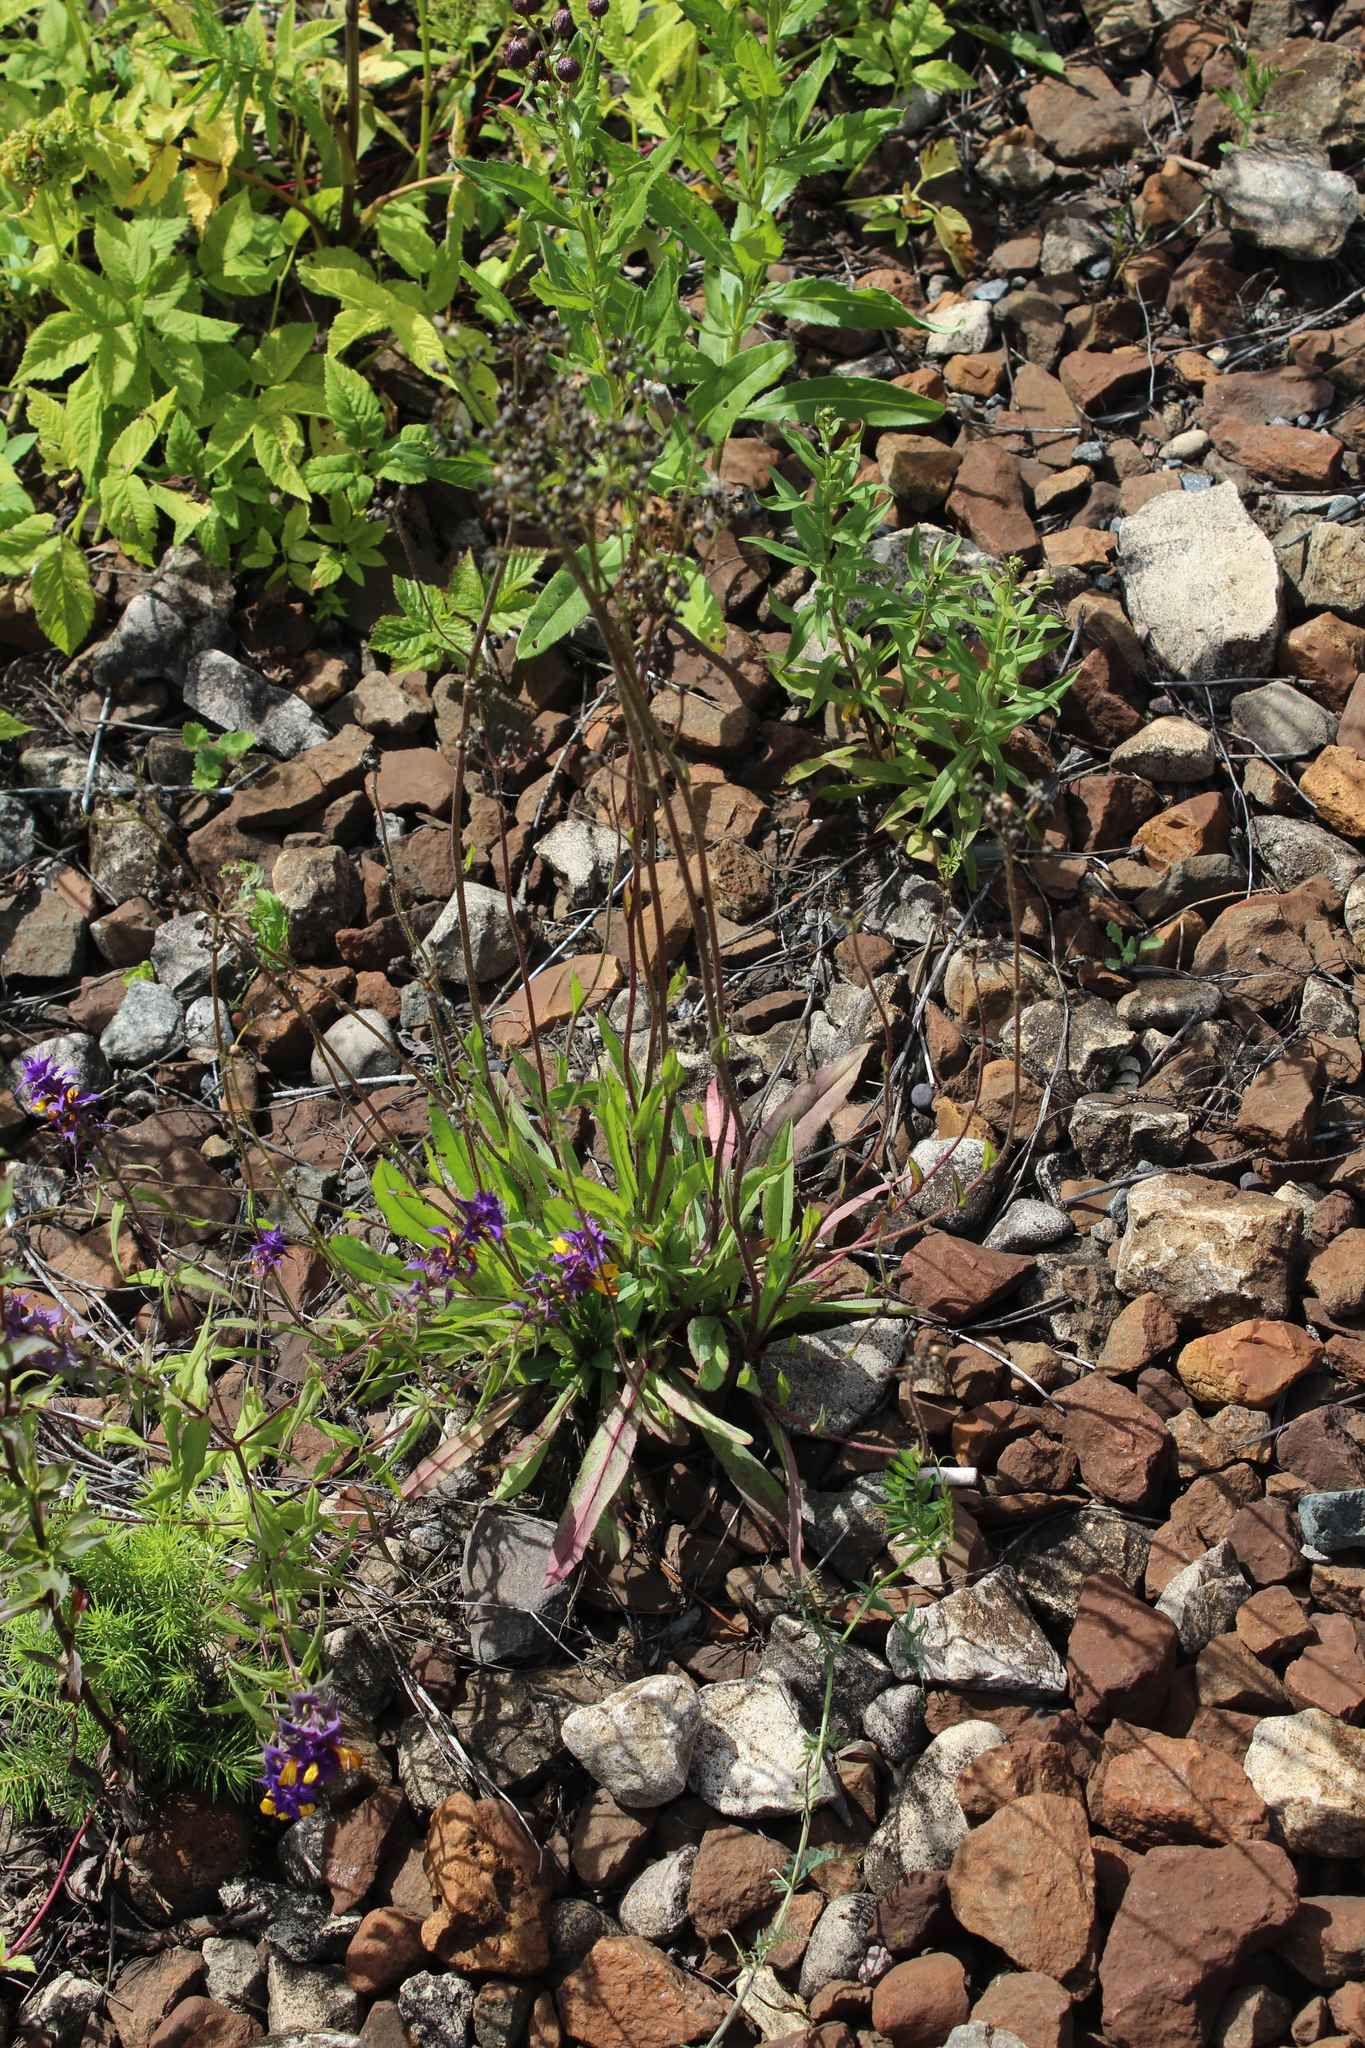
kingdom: Plantae
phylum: Tracheophyta
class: Magnoliopsida
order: Asterales
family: Asteraceae
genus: Pilosella
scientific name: Pilosella
